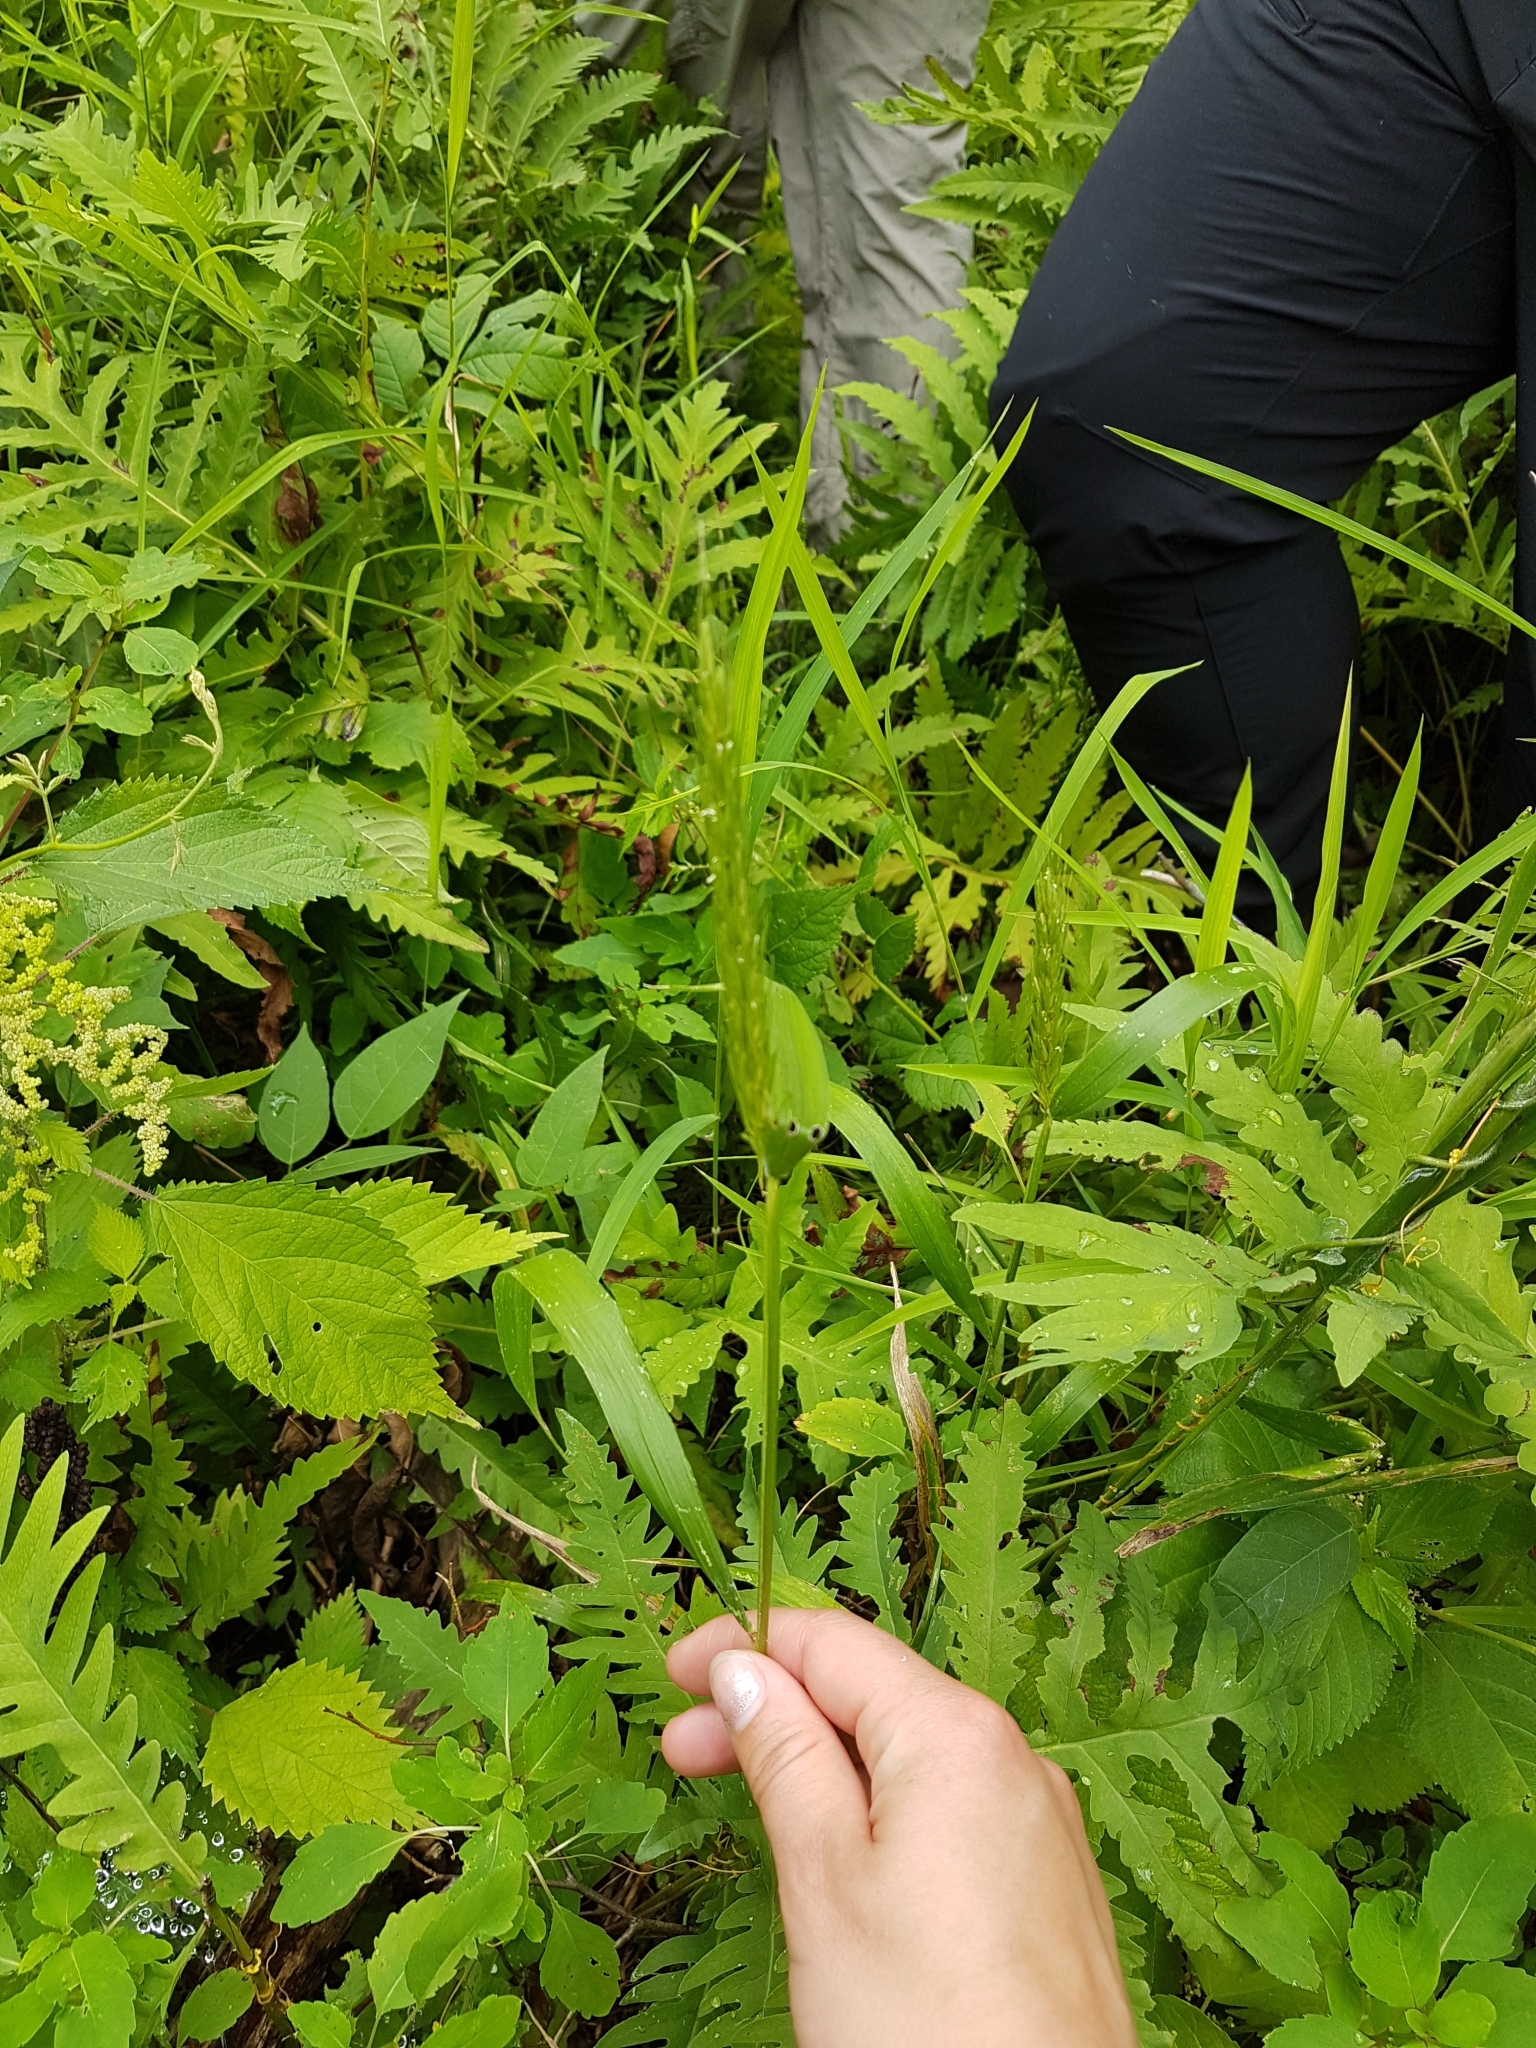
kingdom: Plantae
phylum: Tracheophyta
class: Liliopsida
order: Poales
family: Poaceae
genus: Elymus
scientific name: Elymus virginicus
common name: Common eastern wildrye
